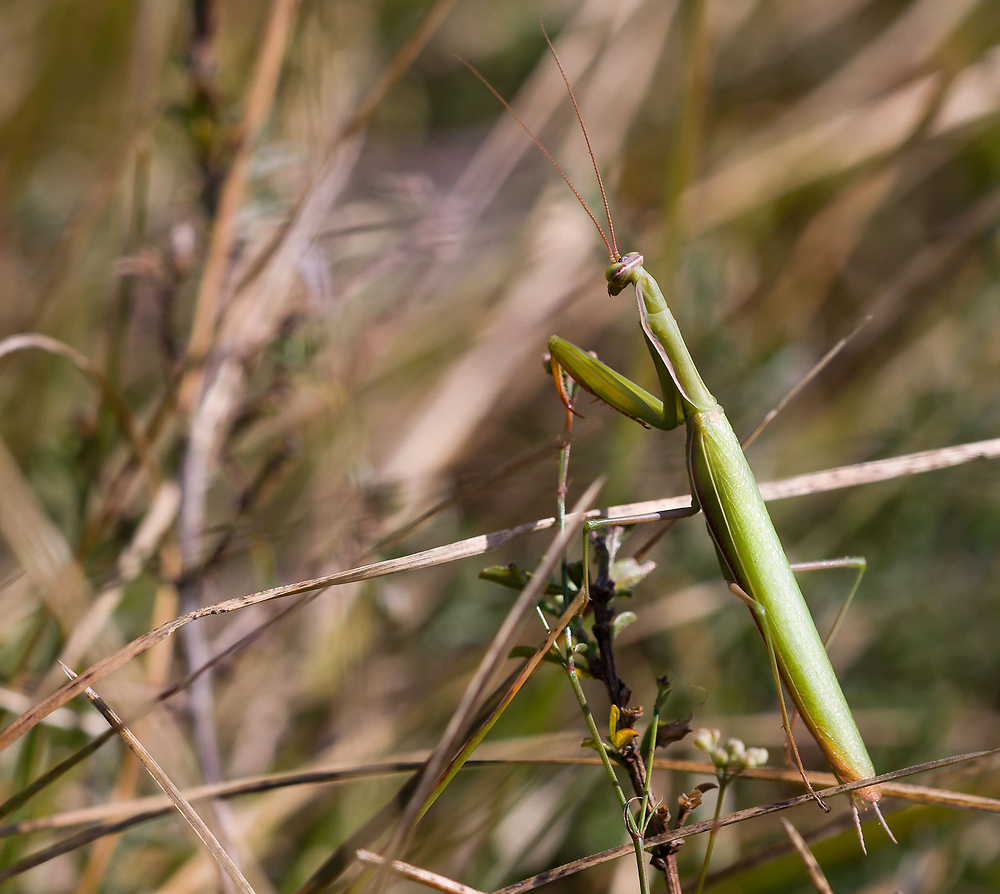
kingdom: Animalia
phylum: Arthropoda
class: Insecta
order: Mantodea
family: Mantidae
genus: Mantis
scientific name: Mantis religiosa
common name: Praying mantis
